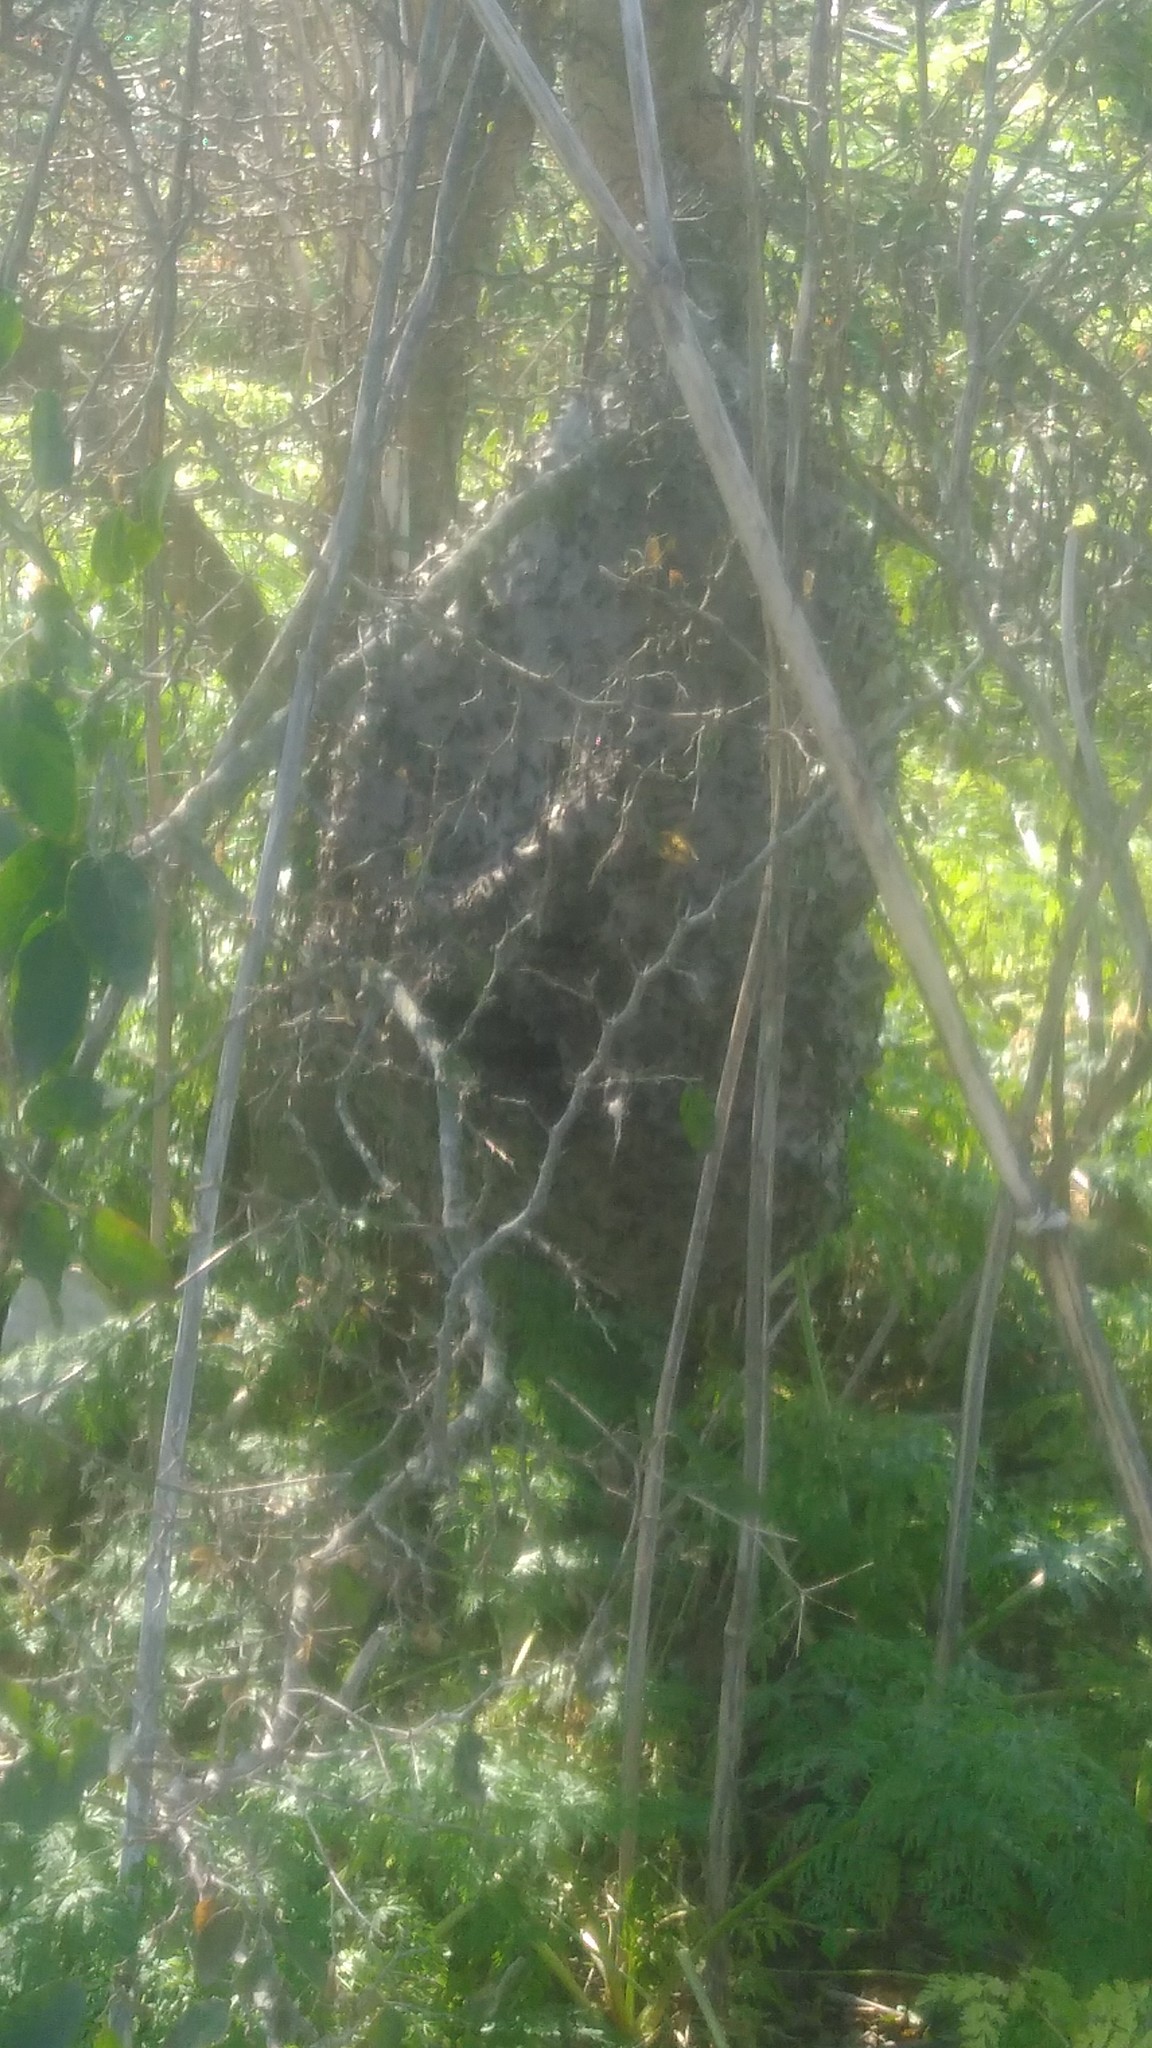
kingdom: Animalia
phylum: Arthropoda
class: Insecta
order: Hymenoptera
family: Eumenidae
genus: Polybia
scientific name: Polybia scutellaris
